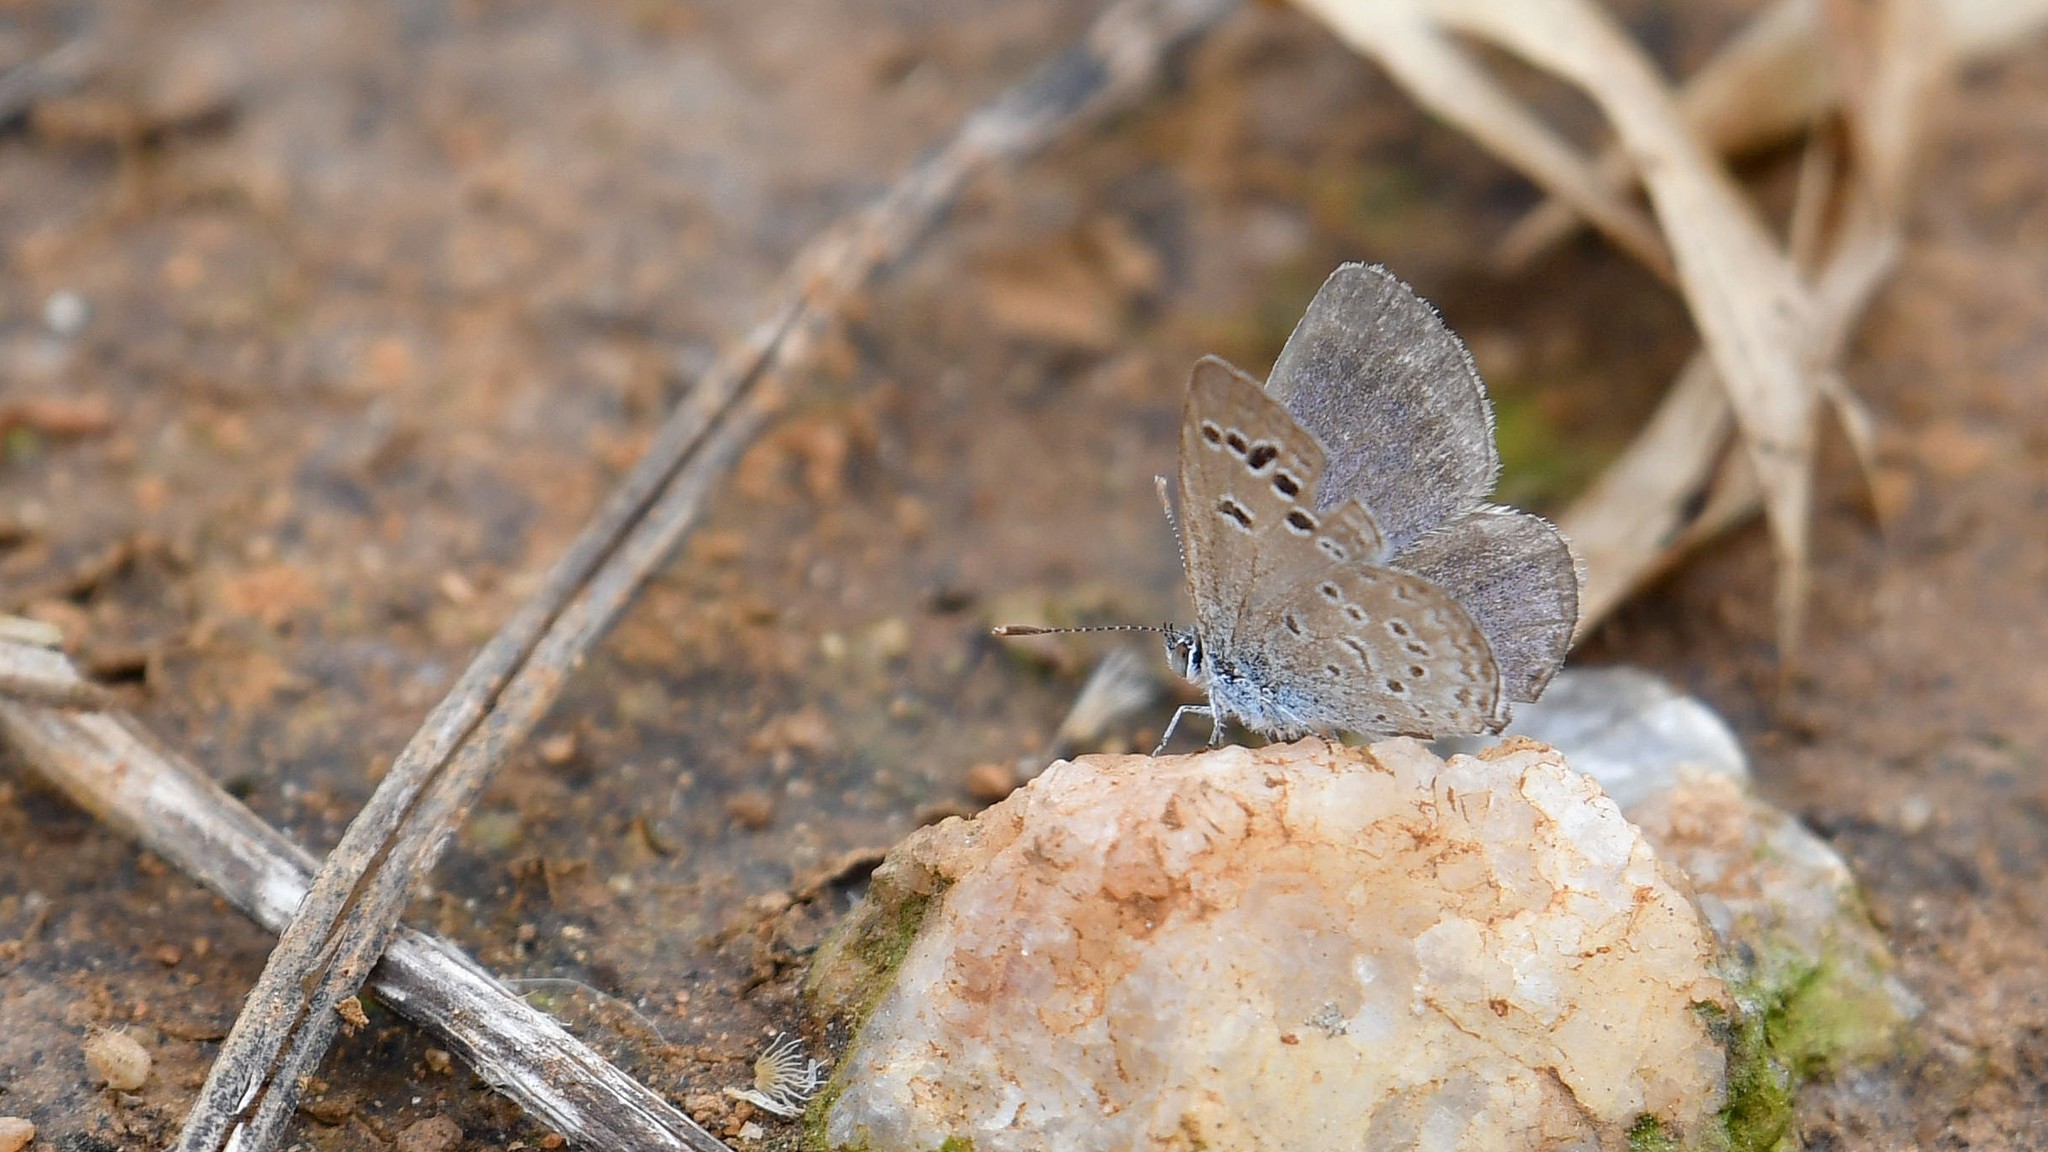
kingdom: Animalia
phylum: Arthropoda
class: Insecta
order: Lepidoptera
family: Lycaenidae
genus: Zizina
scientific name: Zizina otis
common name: Lesser grass blue
